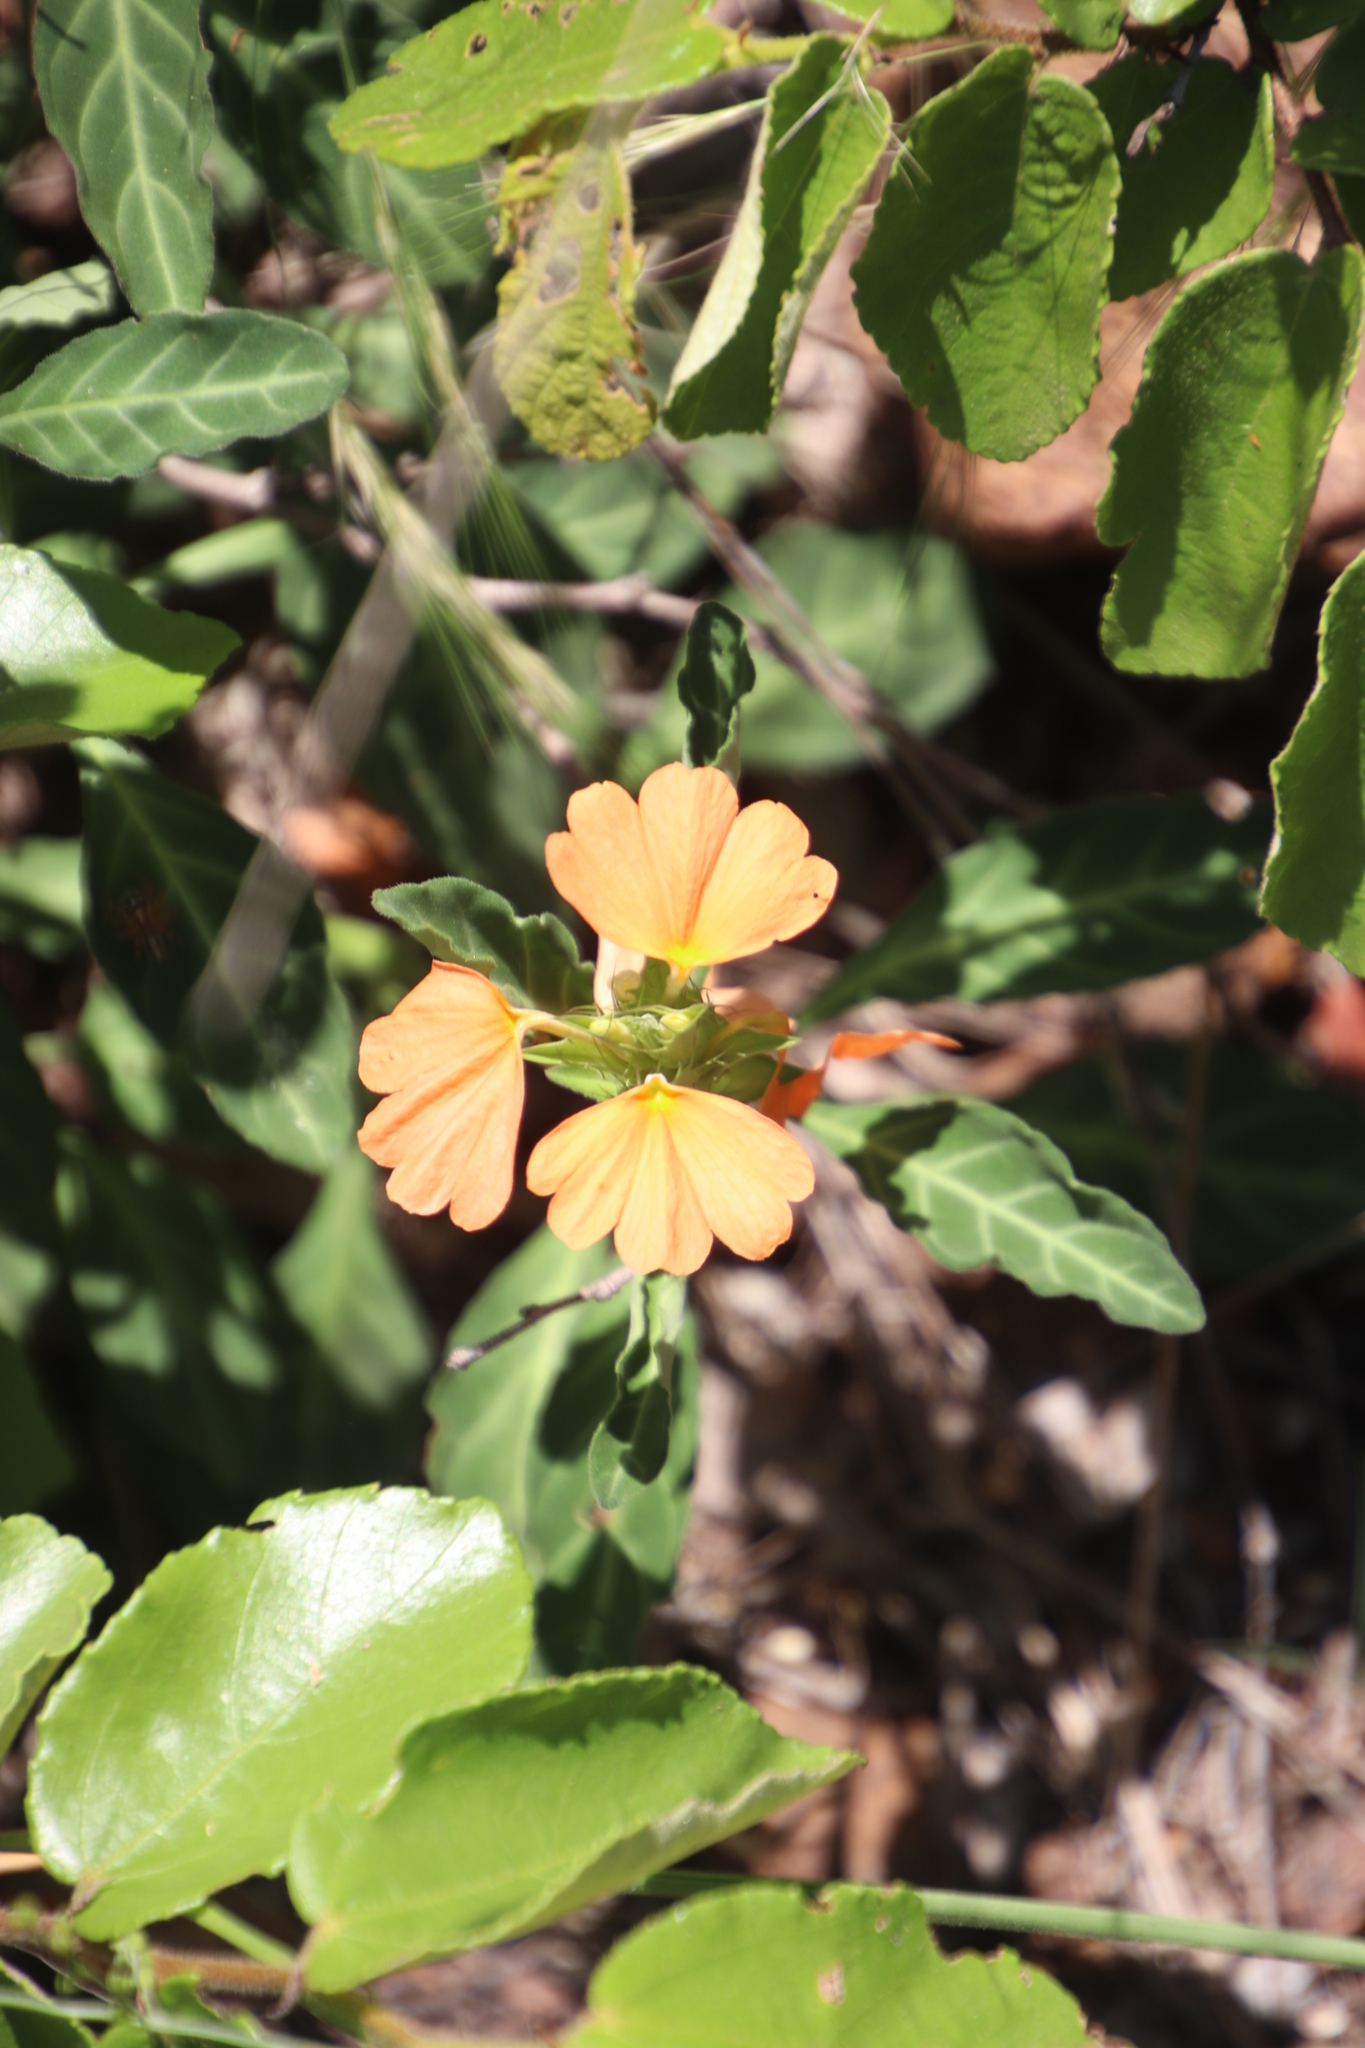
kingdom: Plantae
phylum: Tracheophyta
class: Magnoliopsida
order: Lamiales
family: Acanthaceae
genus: Crossandra
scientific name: Crossandra fruticulosa
